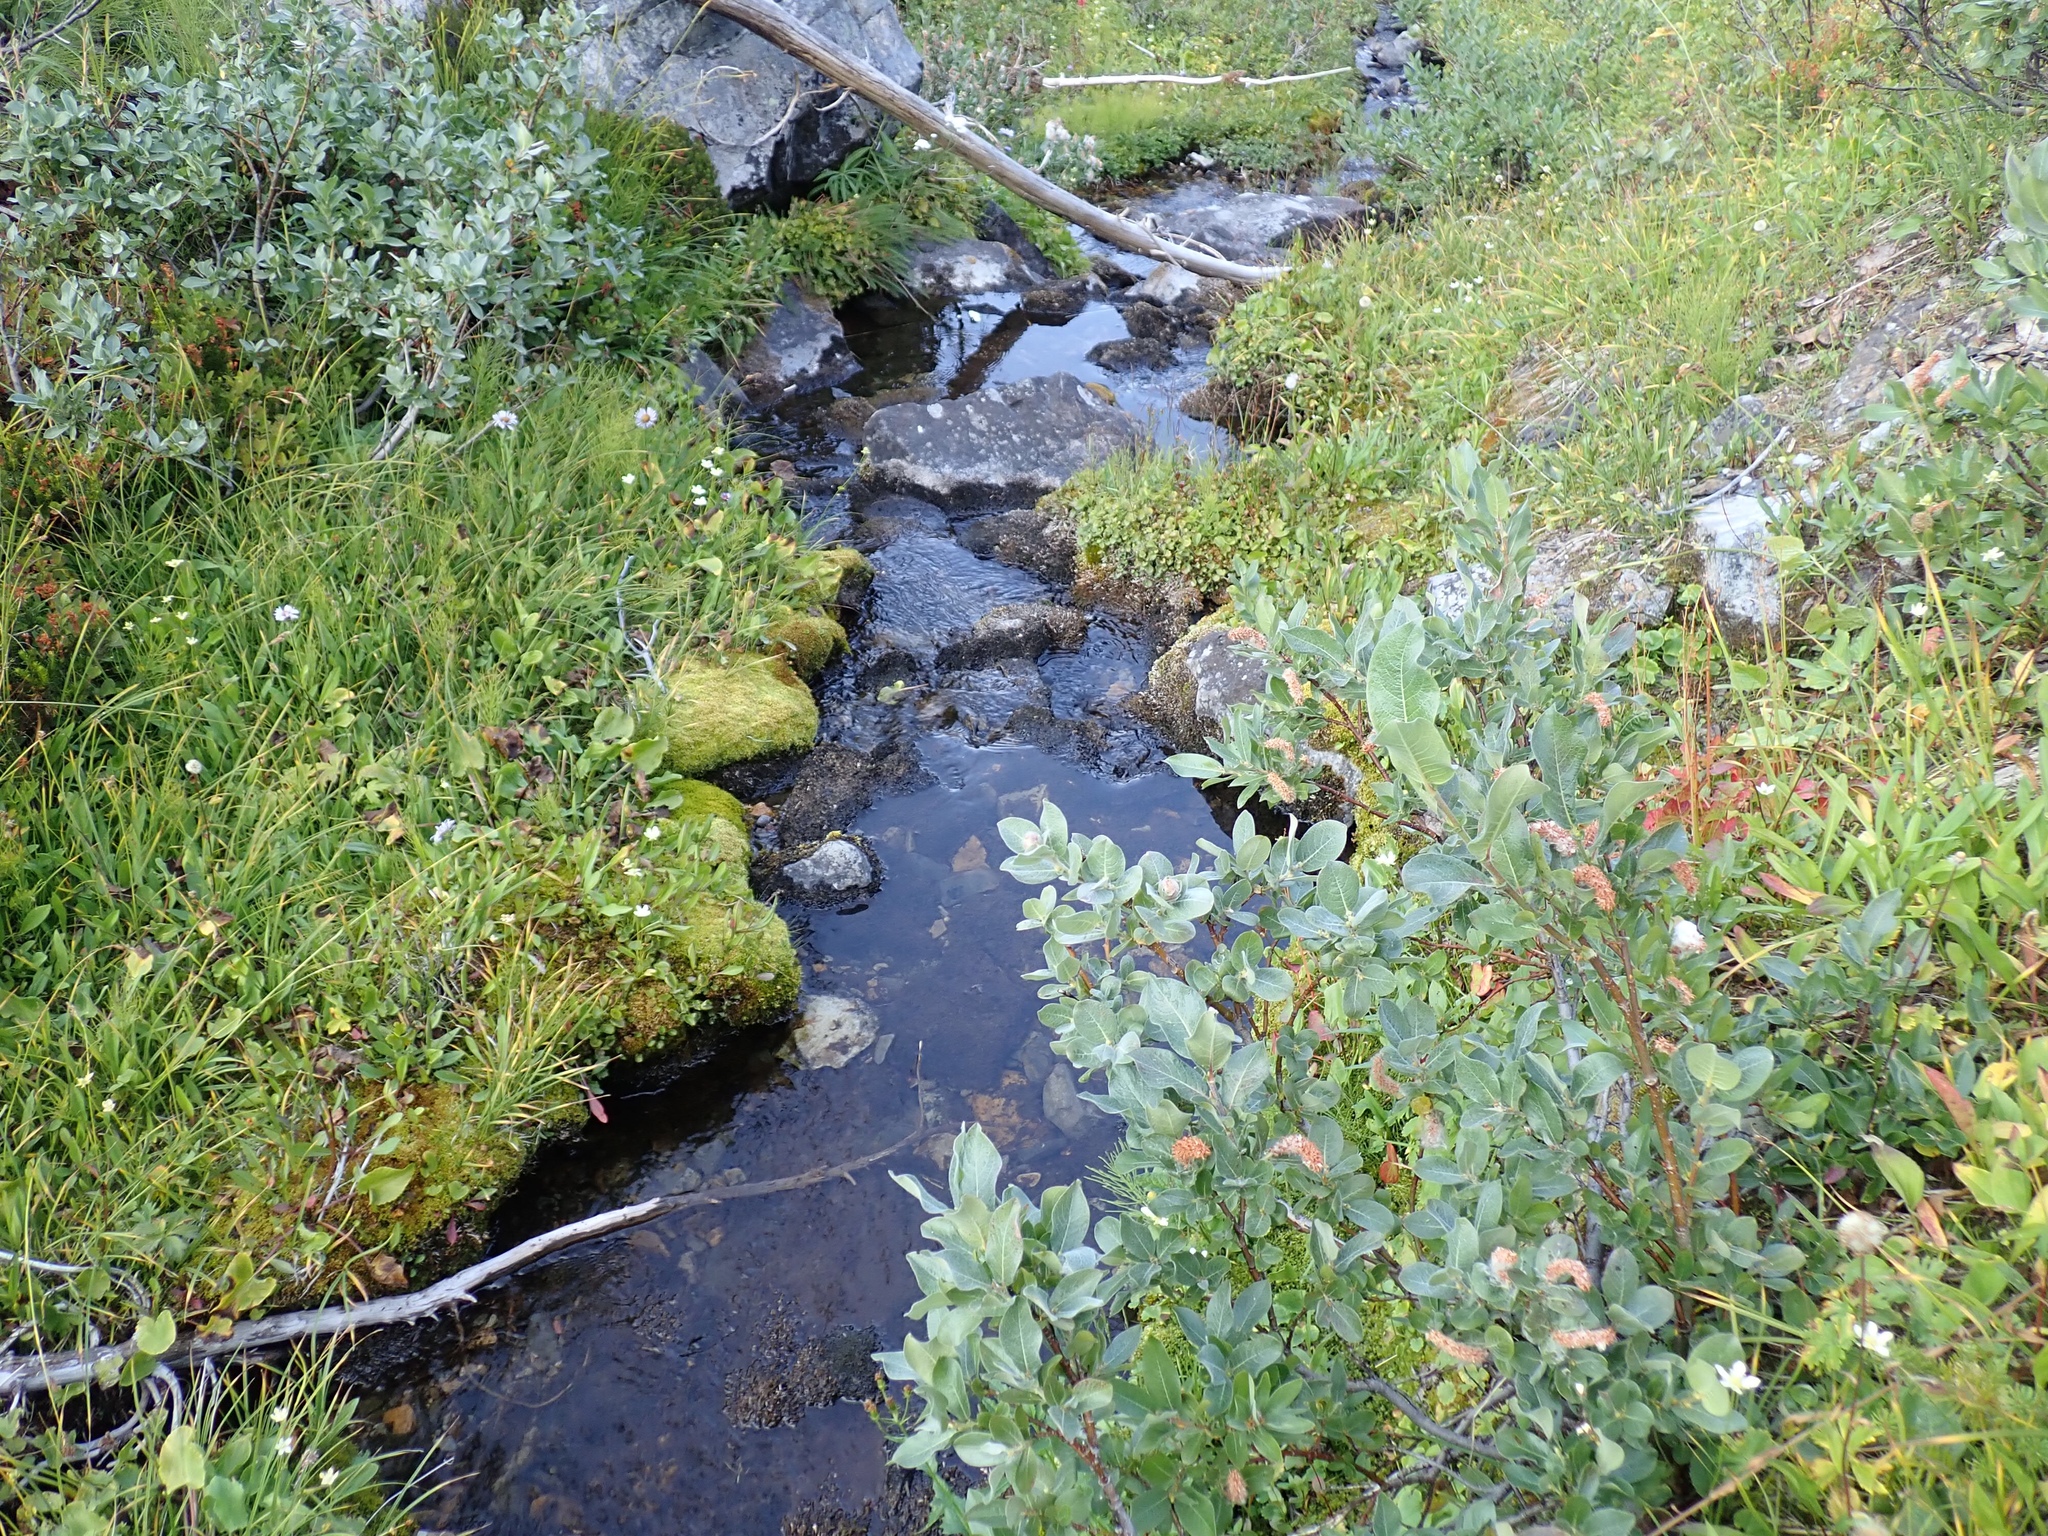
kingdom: Plantae
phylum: Tracheophyta
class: Magnoliopsida
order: Malpighiales
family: Salicaceae
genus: Salix
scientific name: Salix commutata
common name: Under-green willow
